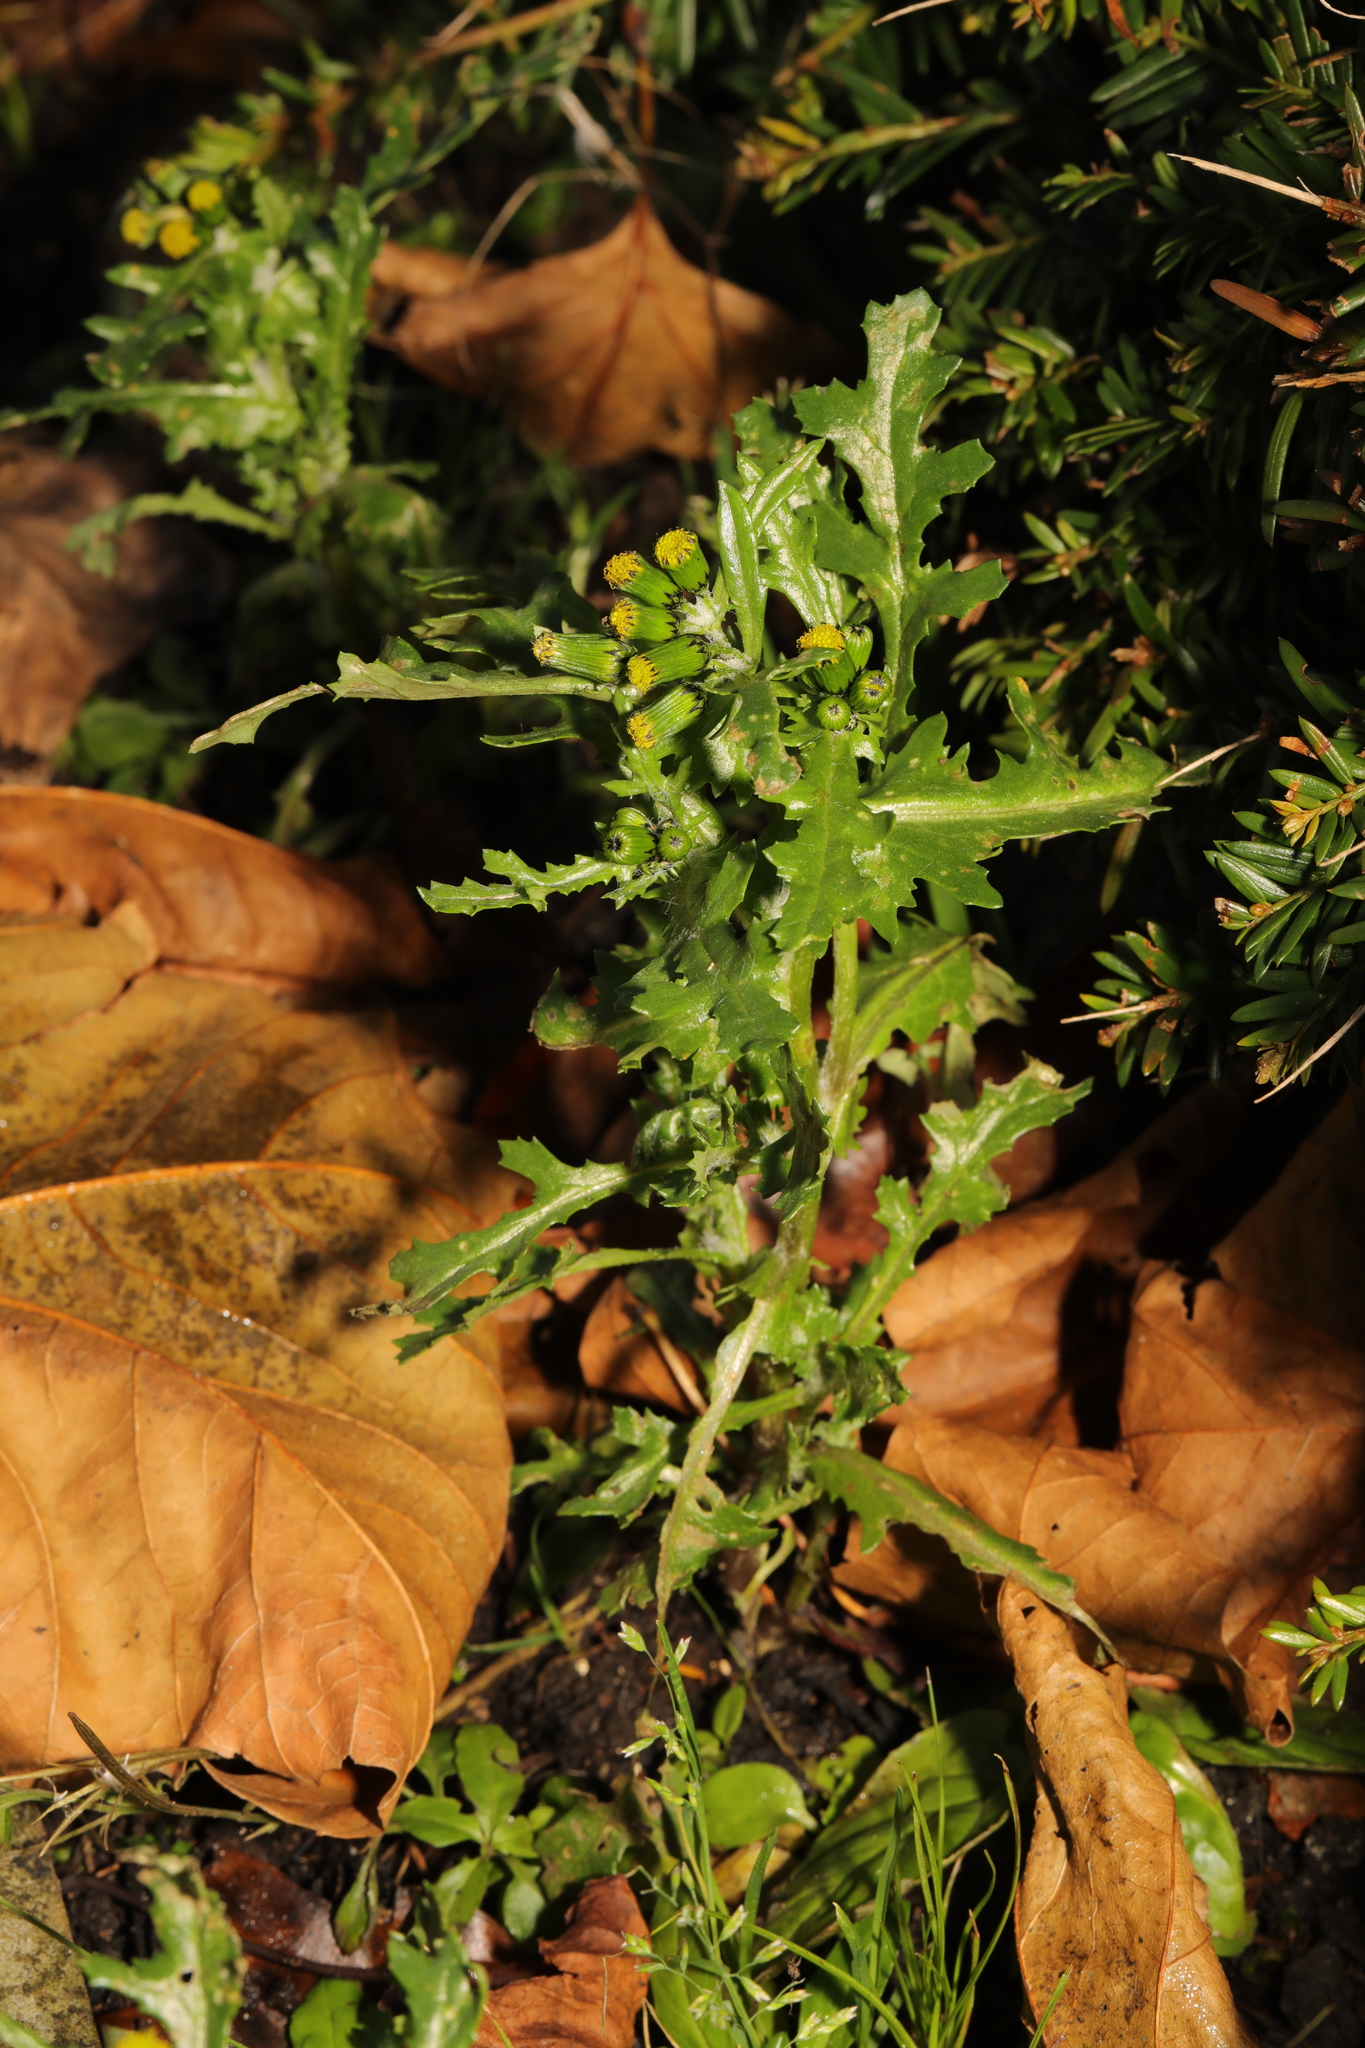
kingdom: Plantae
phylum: Tracheophyta
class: Magnoliopsida
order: Asterales
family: Asteraceae
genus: Senecio
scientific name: Senecio vulgaris
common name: Old-man-in-the-spring
